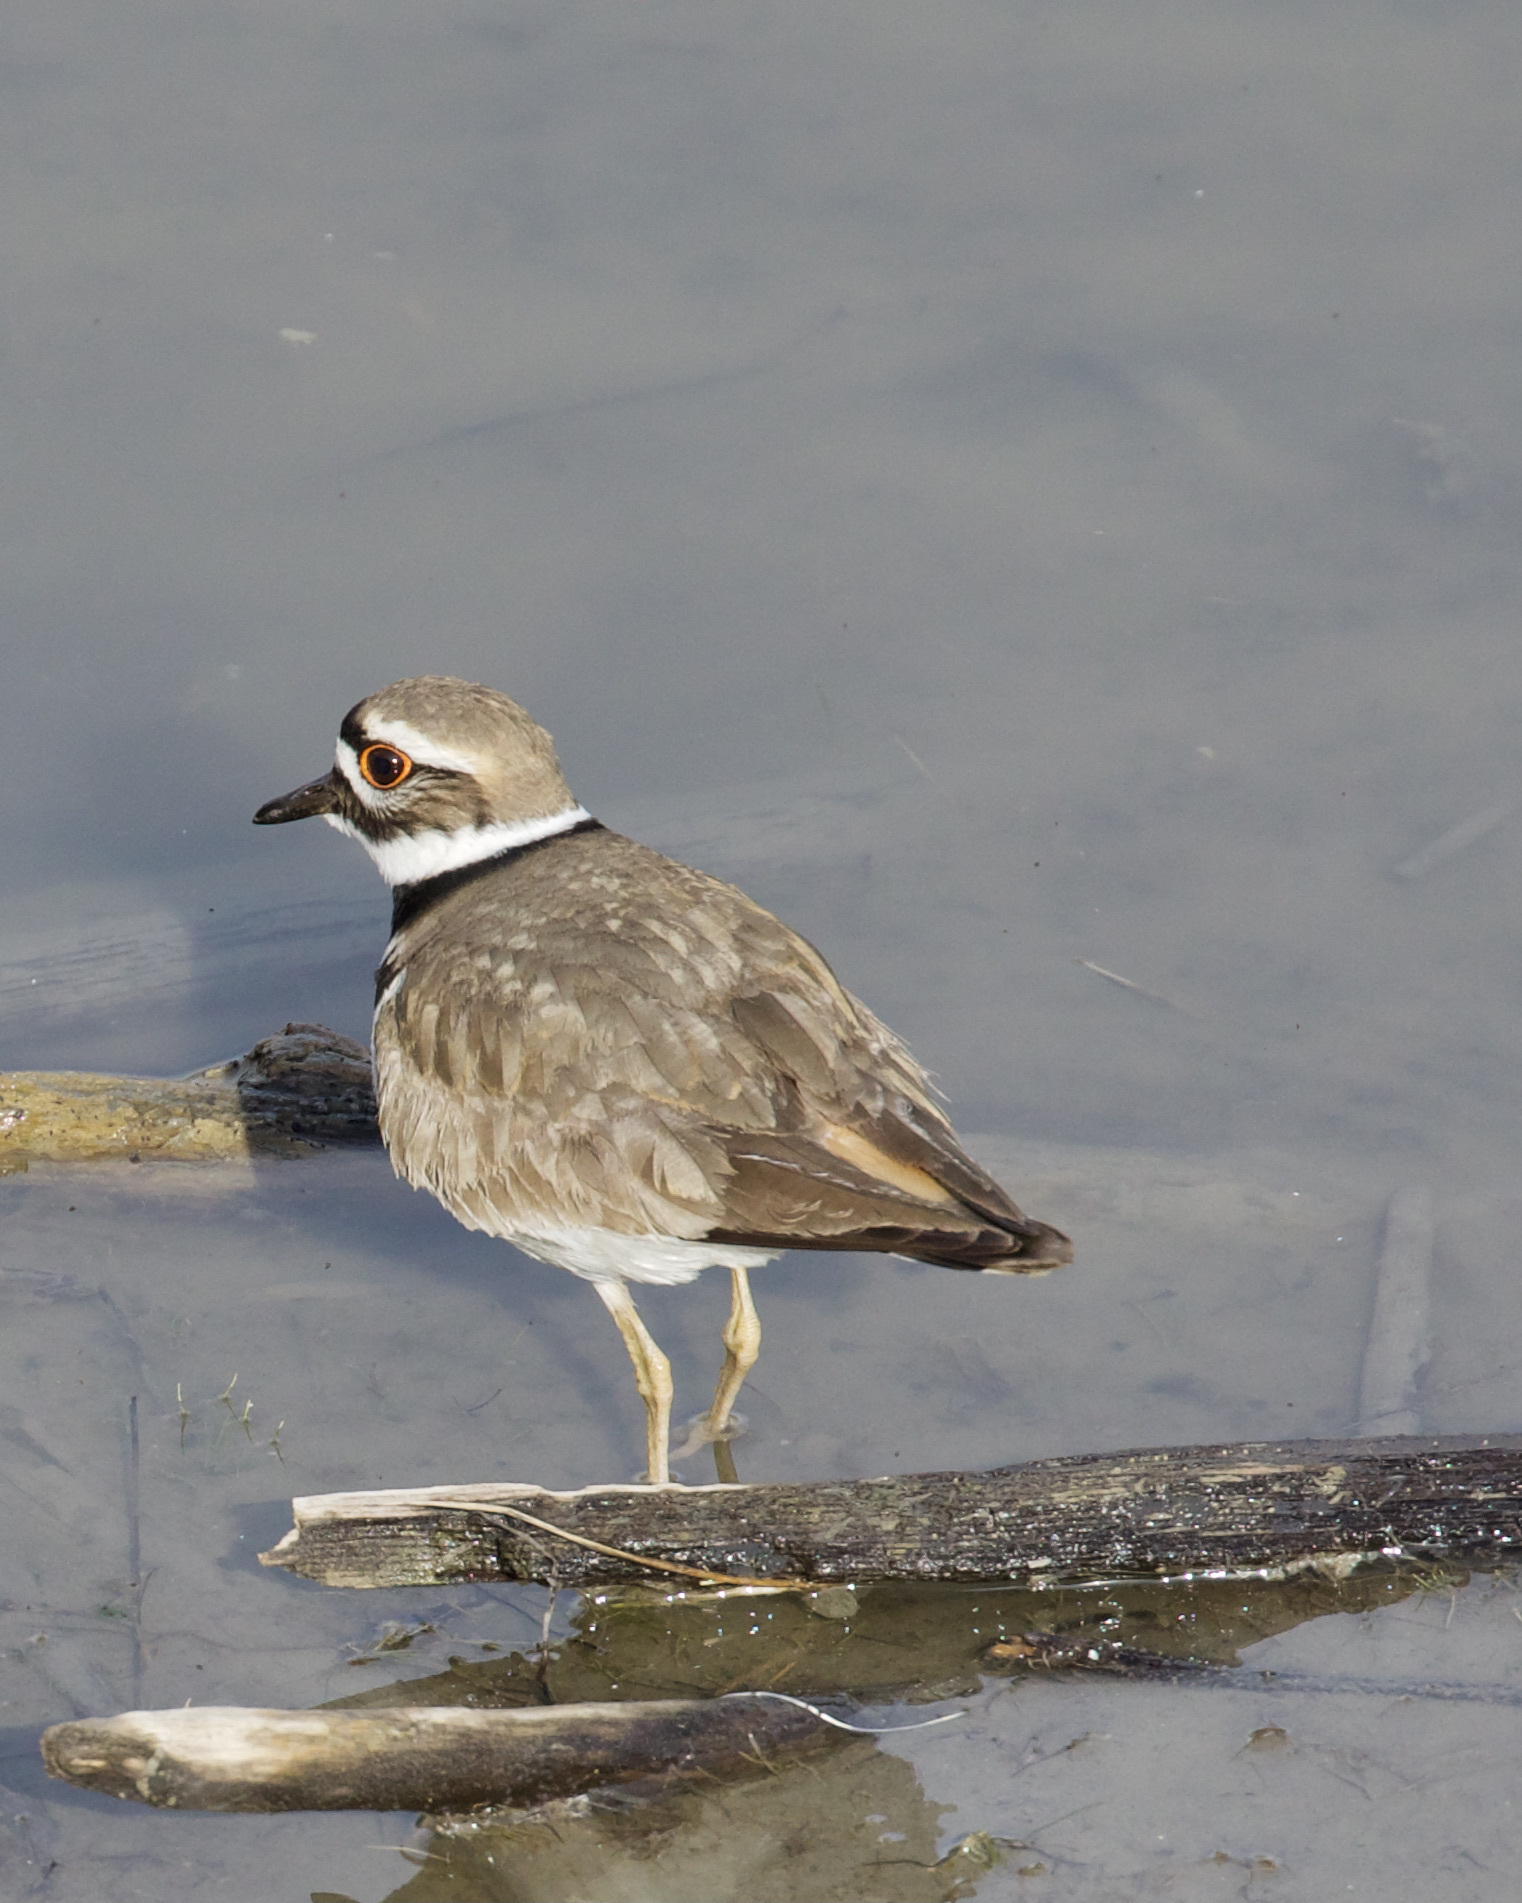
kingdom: Animalia
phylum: Chordata
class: Aves
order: Charadriiformes
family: Charadriidae
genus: Charadrius
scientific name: Charadrius vociferus
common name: Killdeer
